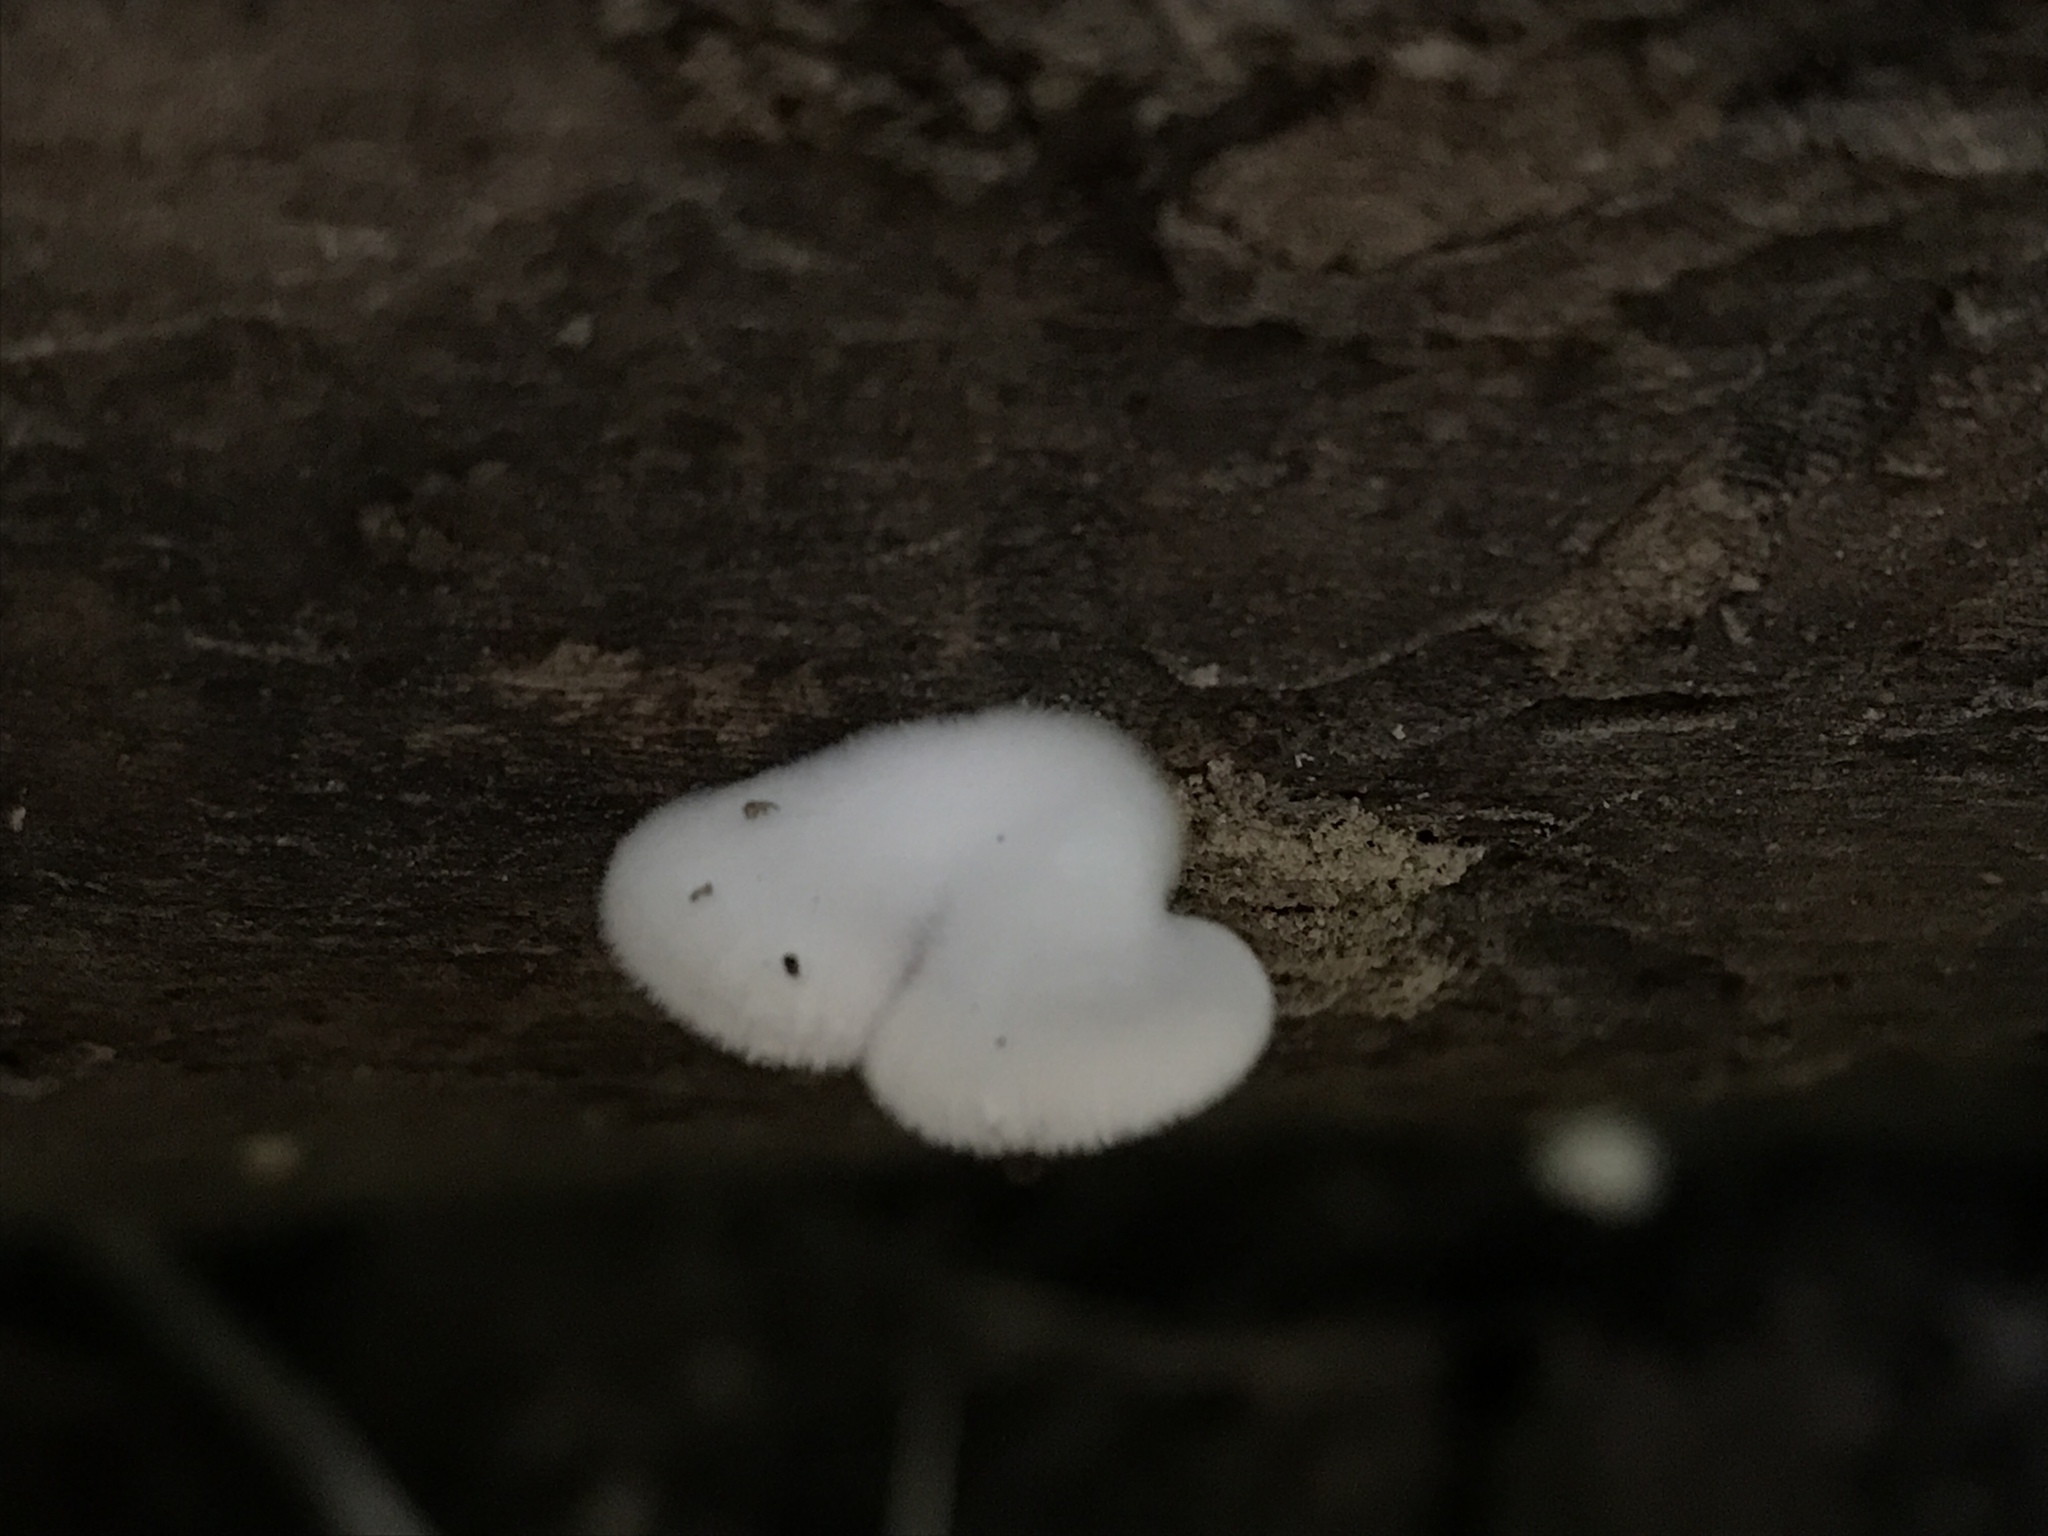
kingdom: Fungi
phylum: Basidiomycota
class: Agaricomycetes
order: Agaricales
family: Schizophyllaceae
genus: Schizophyllum
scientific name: Schizophyllum commune
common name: Common porecrust
